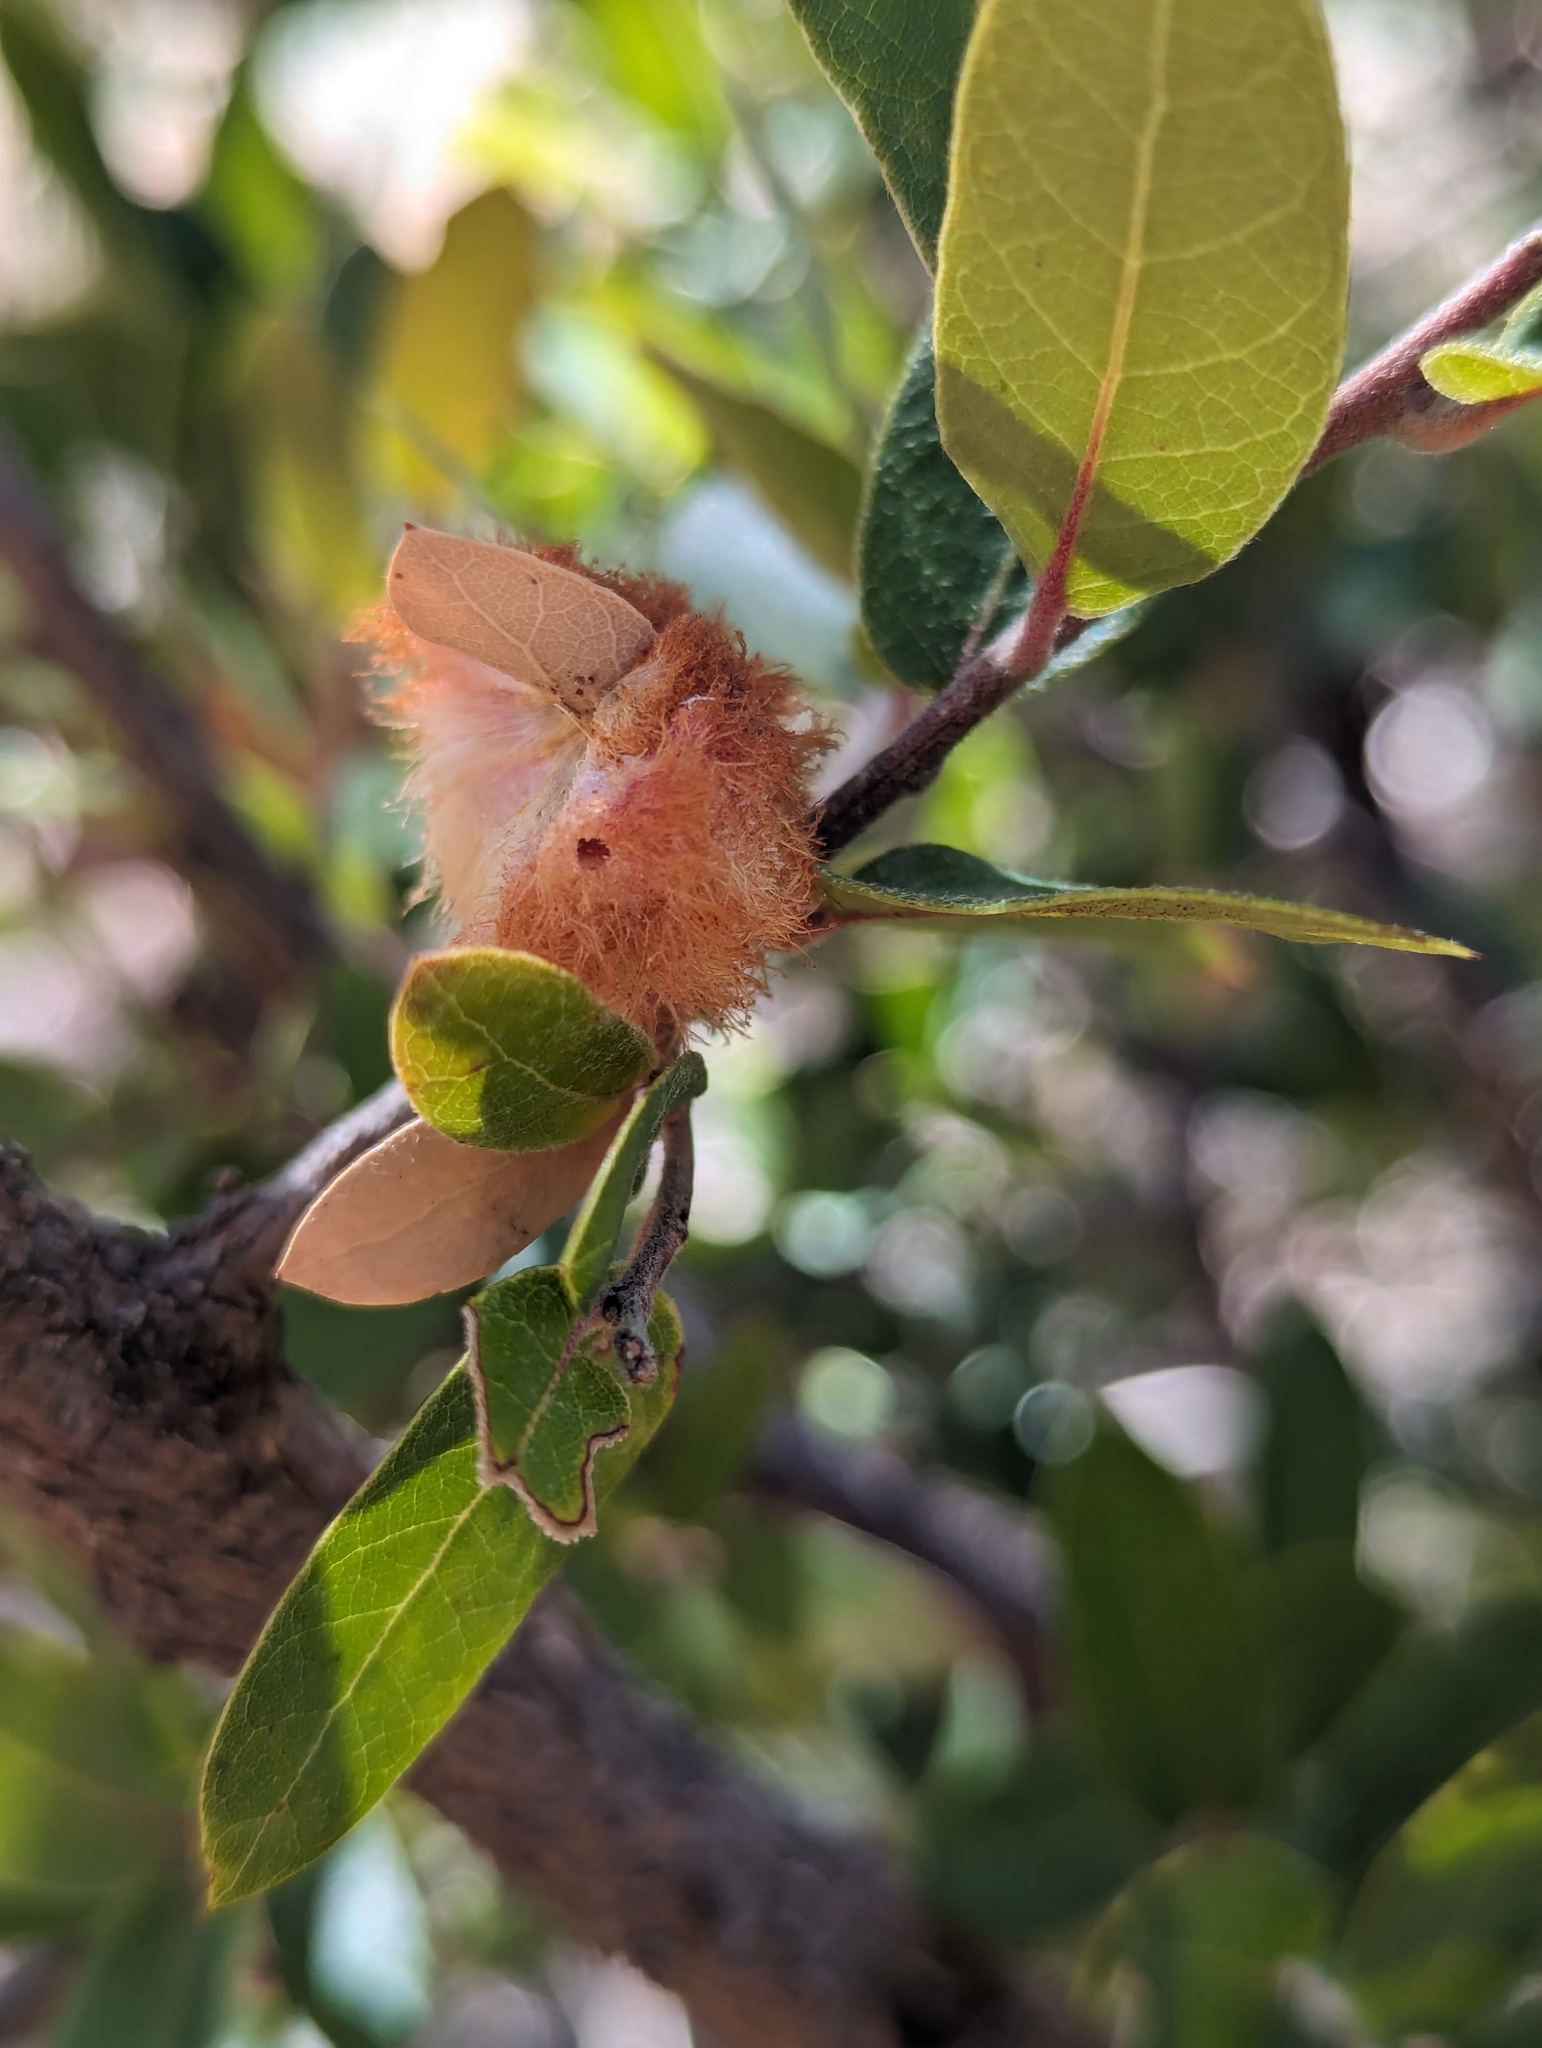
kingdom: Animalia
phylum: Arthropoda
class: Insecta
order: Hymenoptera
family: Cynipidae
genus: Andricus
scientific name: Andricus
